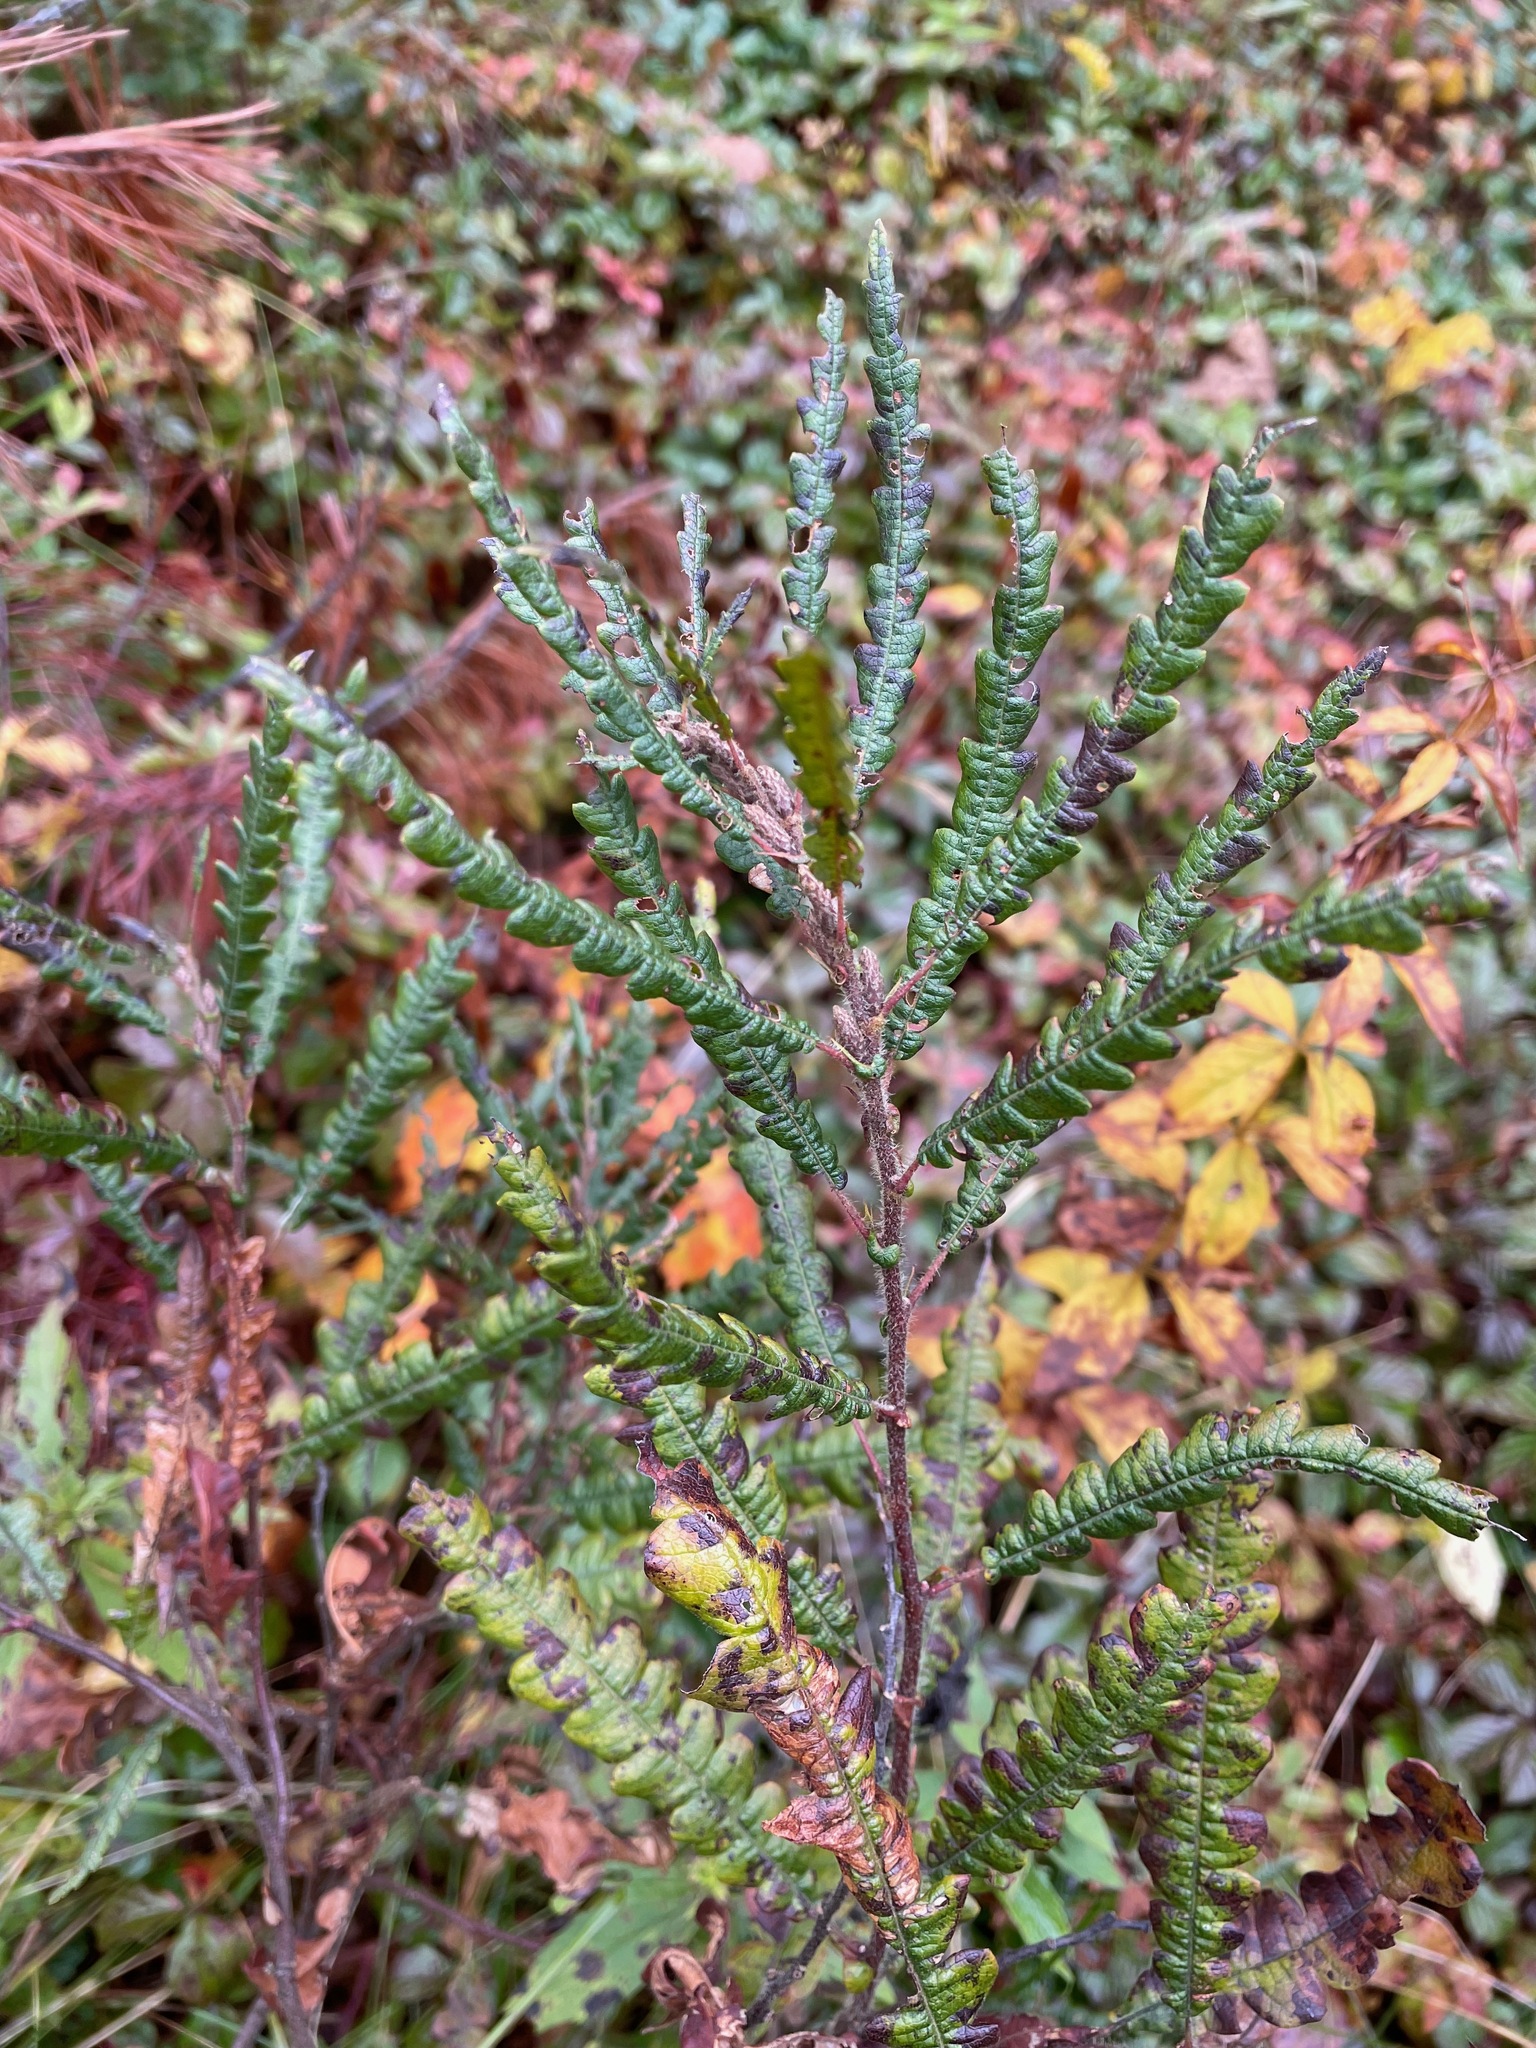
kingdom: Plantae
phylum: Tracheophyta
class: Magnoliopsida
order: Fagales
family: Myricaceae
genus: Comptonia
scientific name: Comptonia peregrina
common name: Sweet-fern
